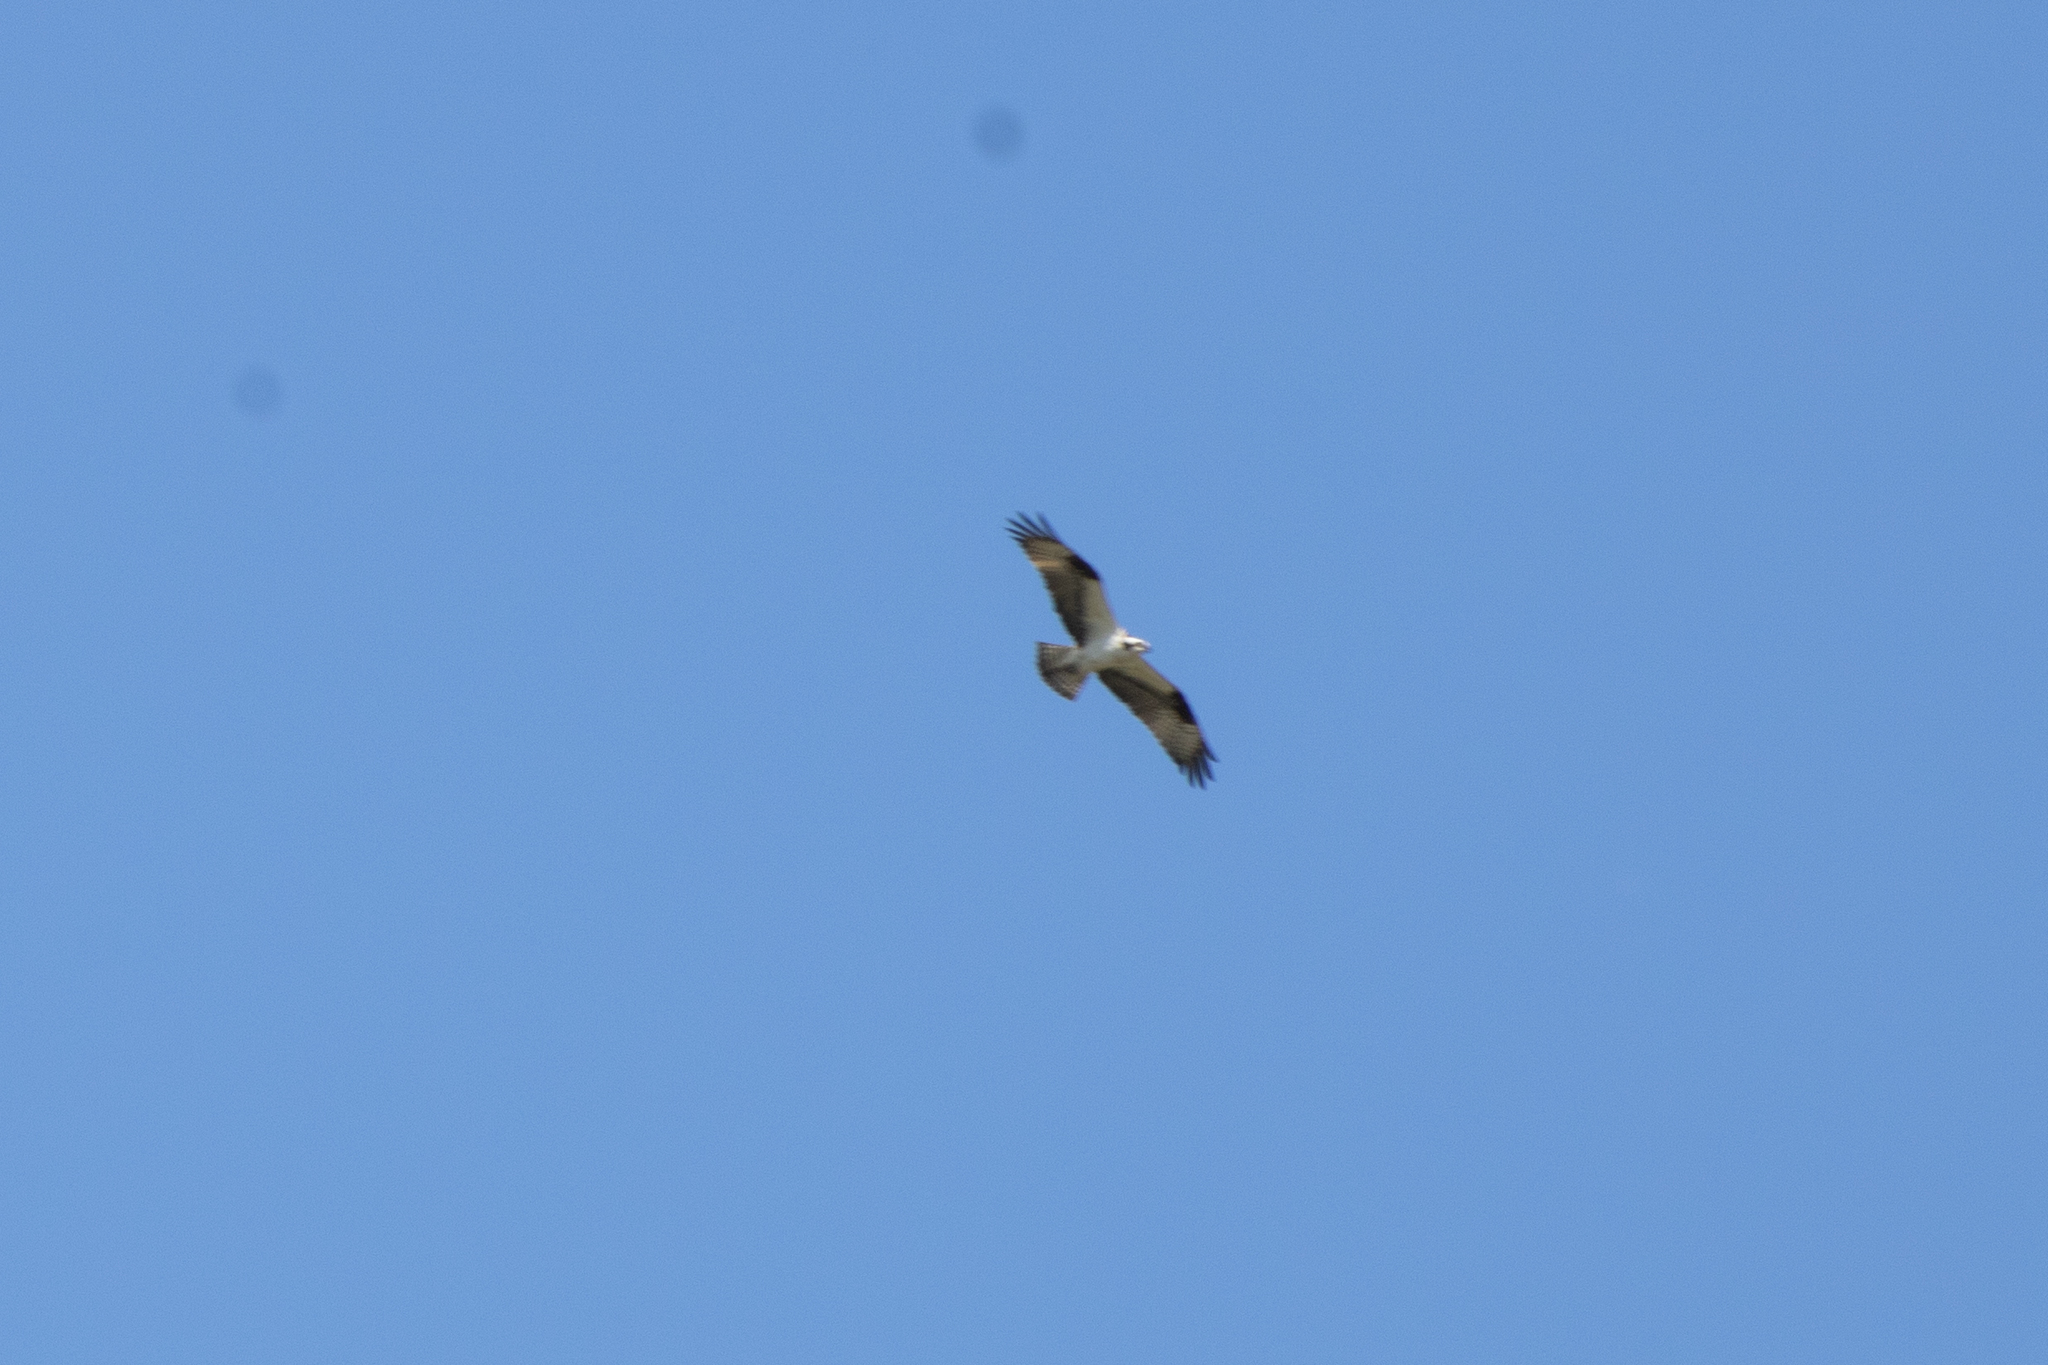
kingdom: Animalia
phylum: Chordata
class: Aves
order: Accipitriformes
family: Pandionidae
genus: Pandion
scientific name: Pandion haliaetus
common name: Osprey
